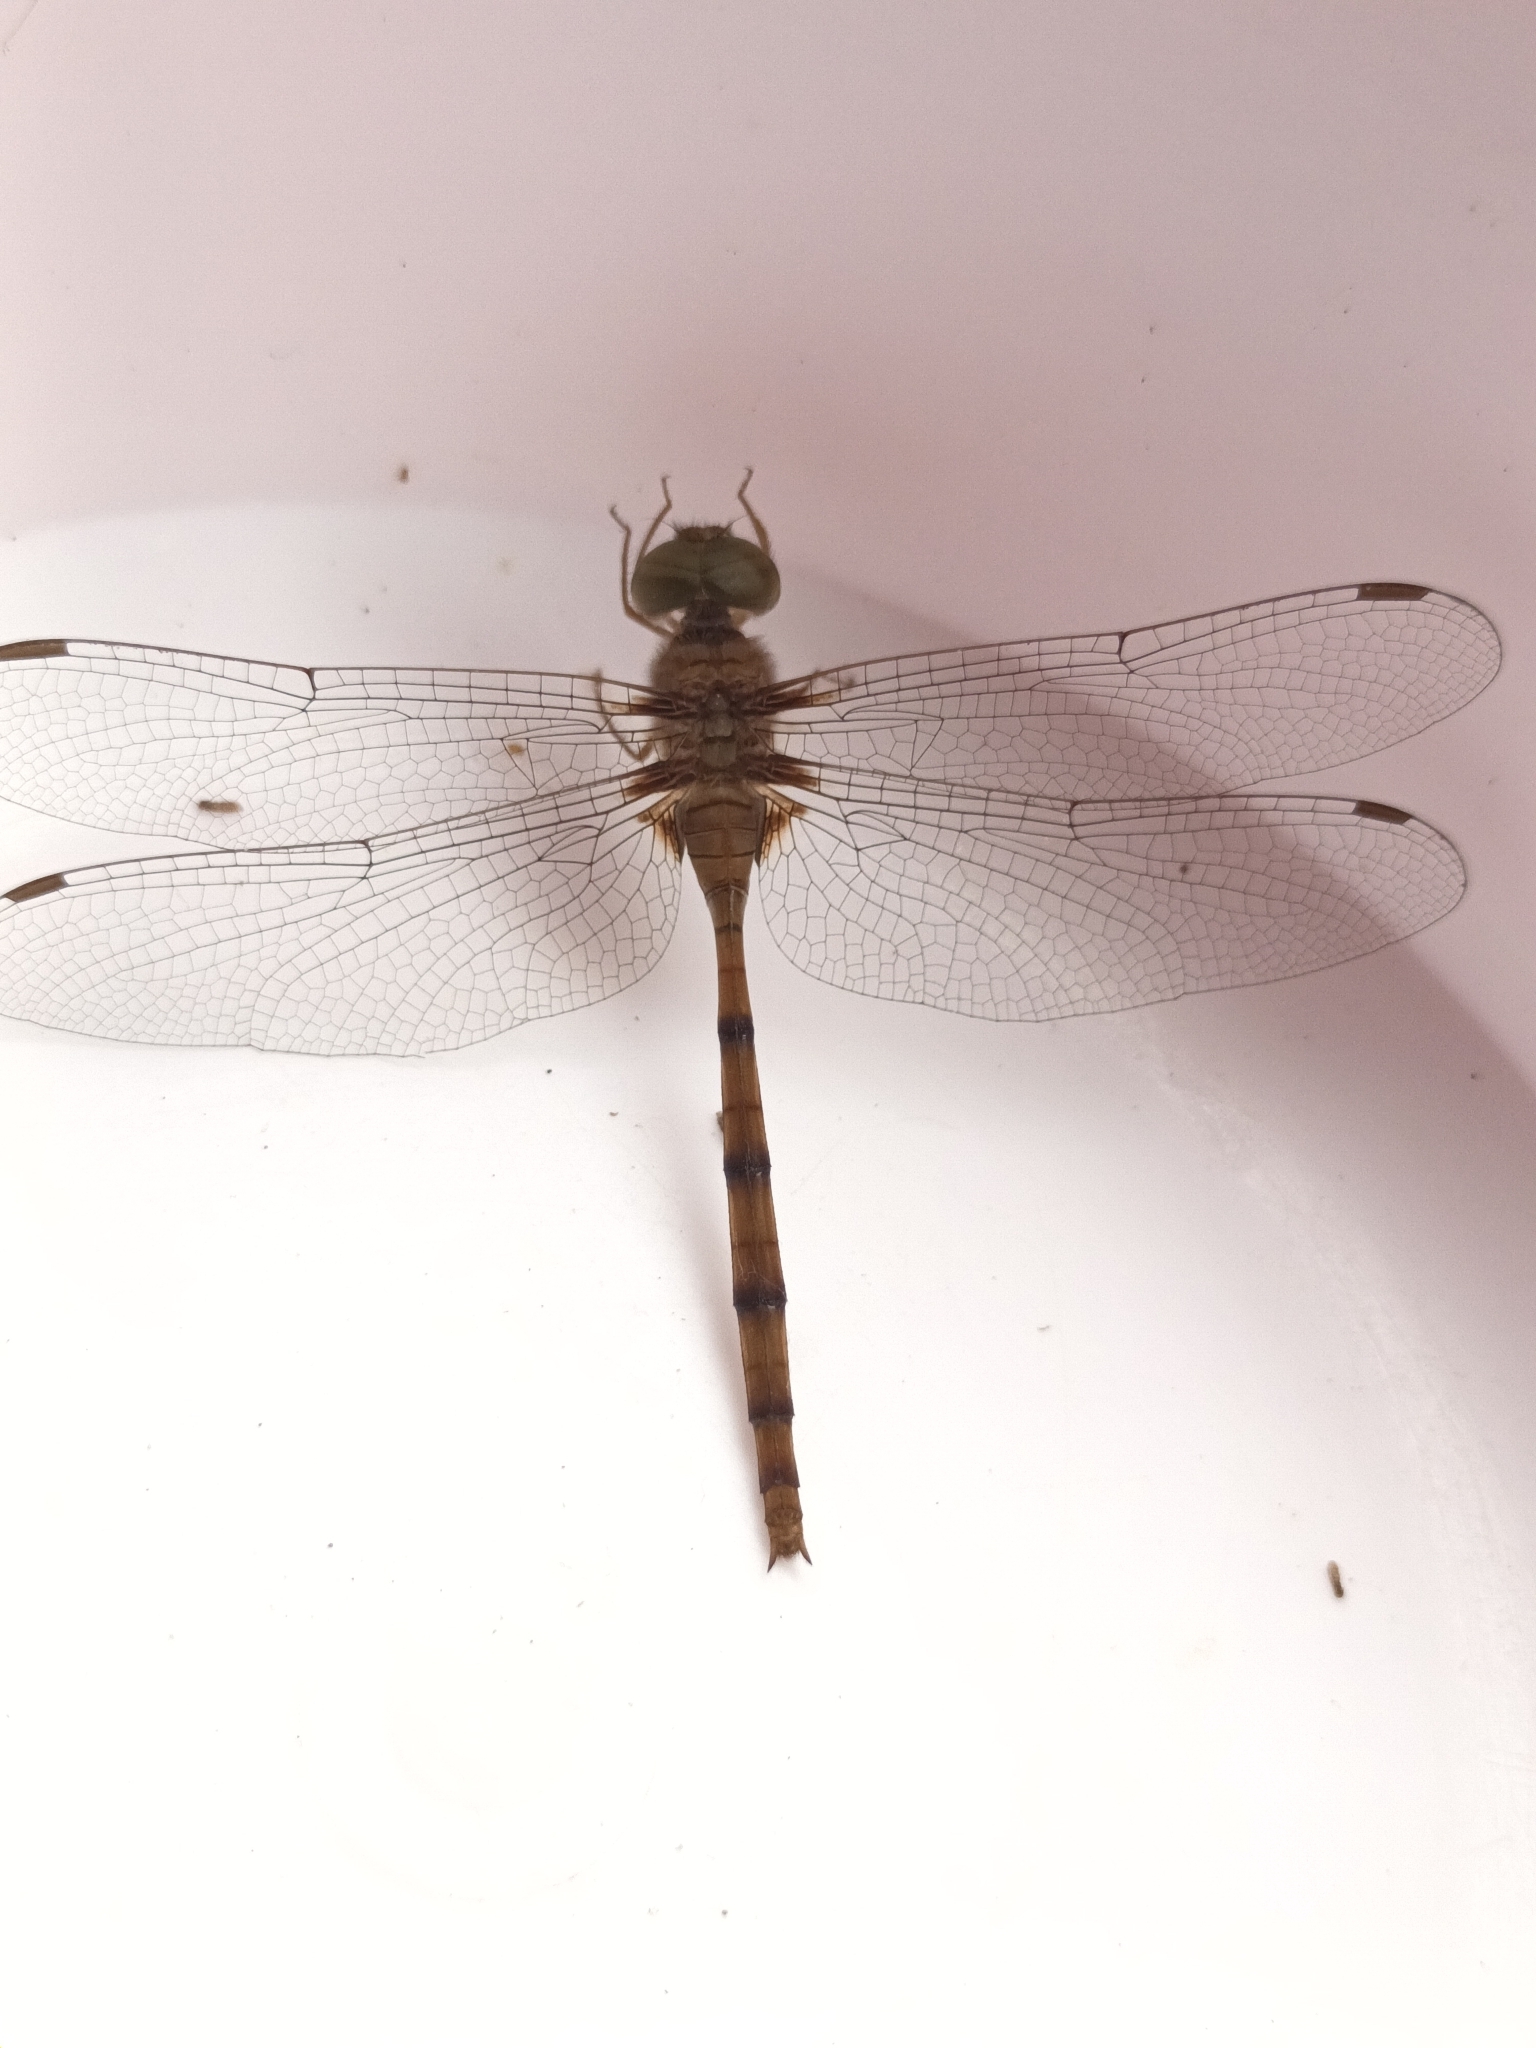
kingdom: Animalia
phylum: Arthropoda
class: Insecta
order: Odonata
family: Libellulidae
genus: Zyxomma
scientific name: Zyxomma petiolatum
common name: Dingy dusk-darter
